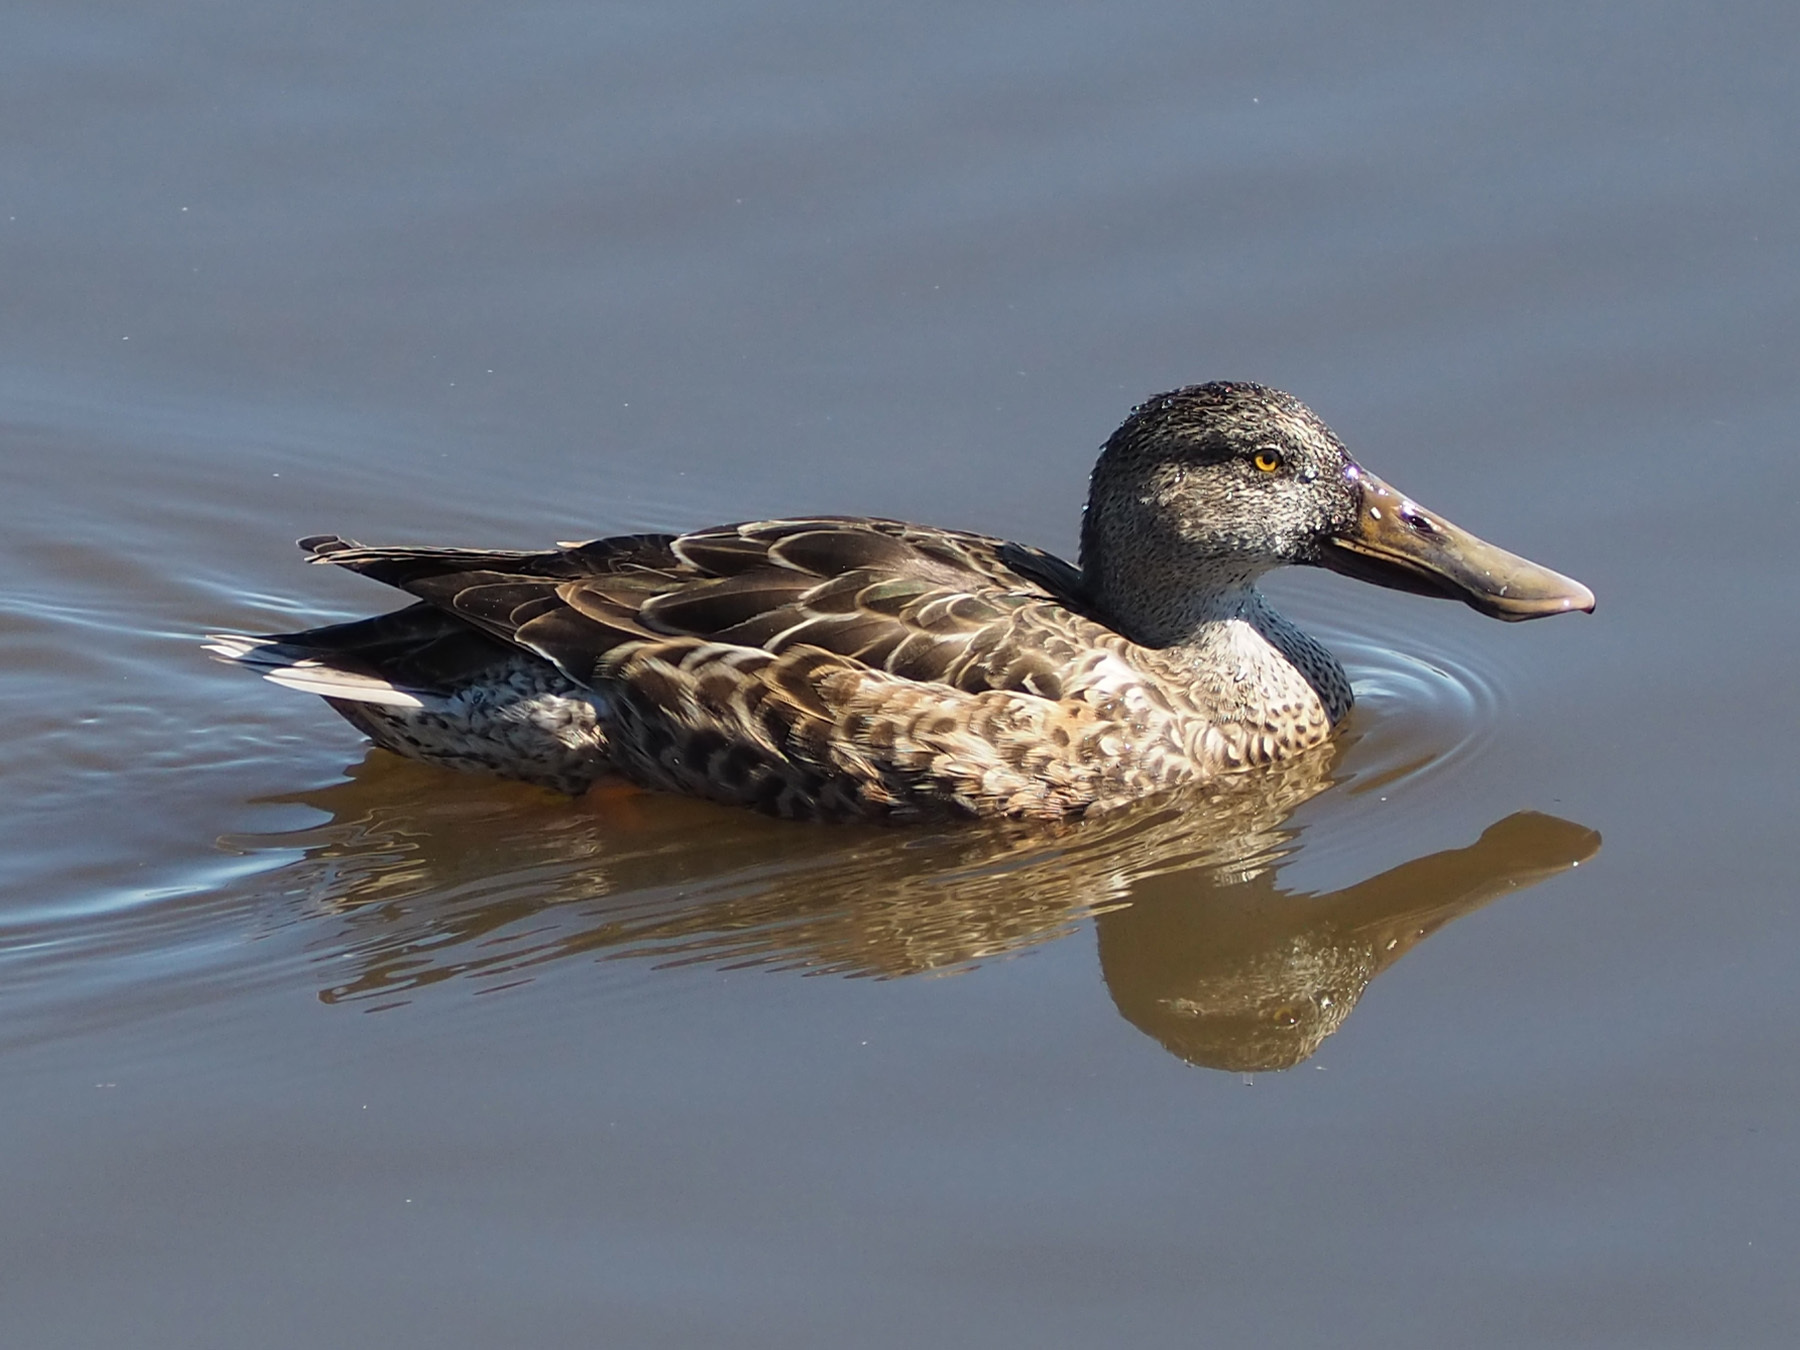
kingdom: Animalia
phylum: Chordata
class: Aves
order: Anseriformes
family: Anatidae
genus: Spatula
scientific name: Spatula clypeata
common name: Northern shoveler
